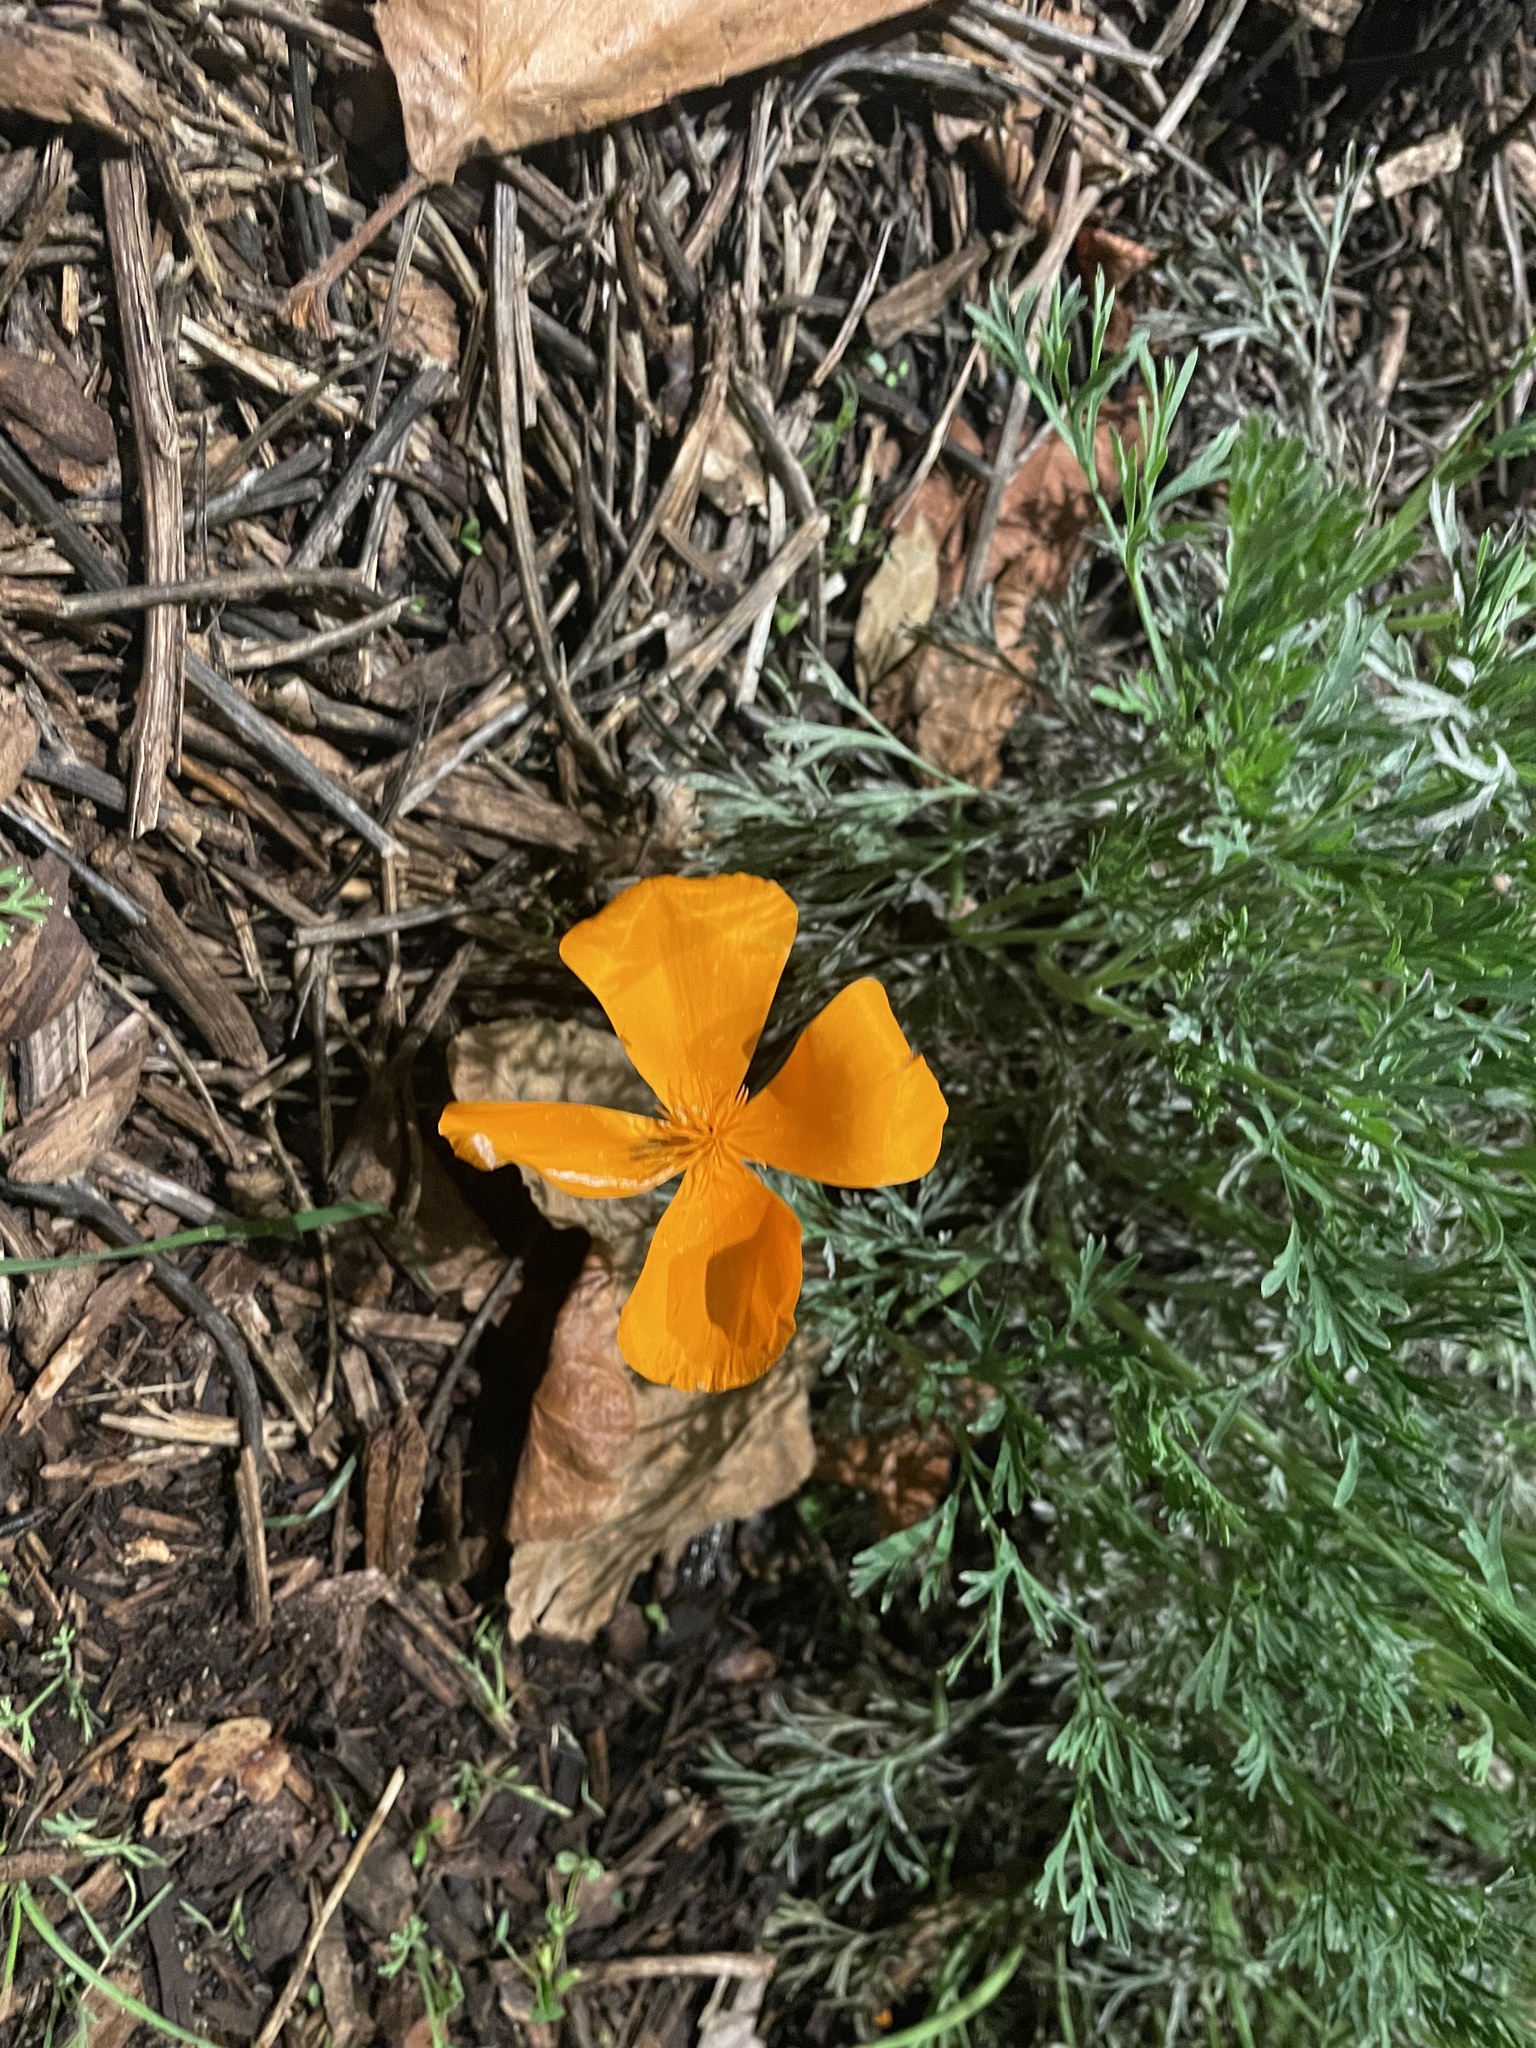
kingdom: Plantae
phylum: Tracheophyta
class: Magnoliopsida
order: Ranunculales
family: Papaveraceae
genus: Eschscholzia
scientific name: Eschscholzia californica
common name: California poppy
